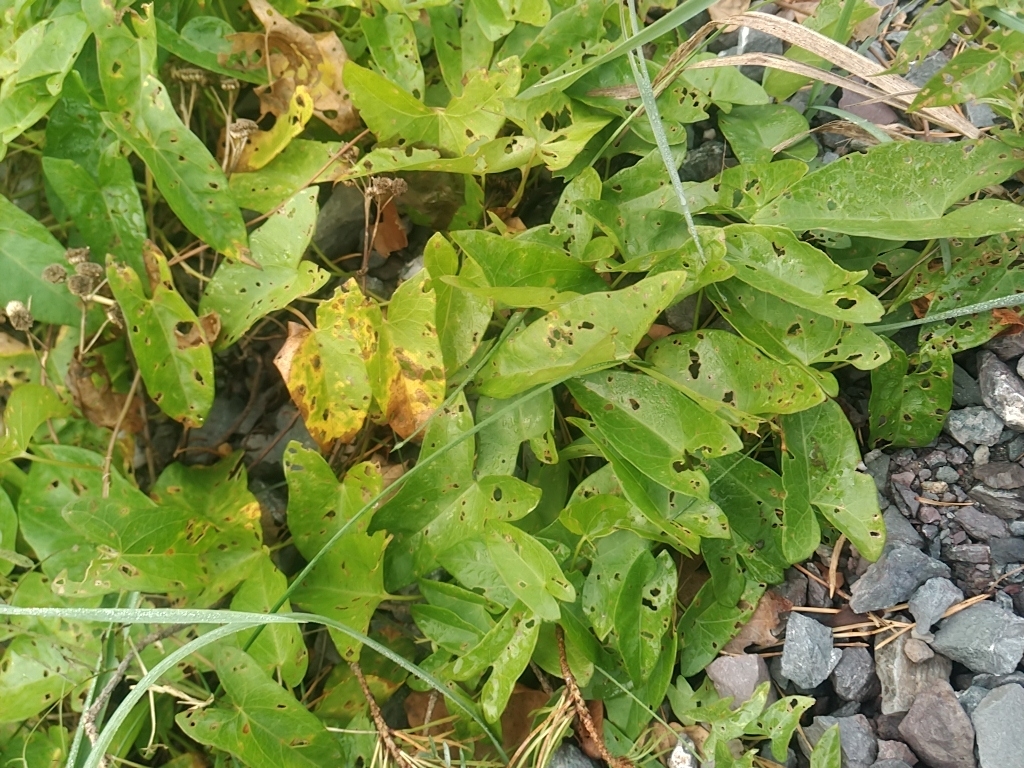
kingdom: Plantae
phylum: Tracheophyta
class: Magnoliopsida
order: Solanales
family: Convolvulaceae
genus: Calystegia
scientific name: Calystegia sepium
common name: Hedge bindweed
